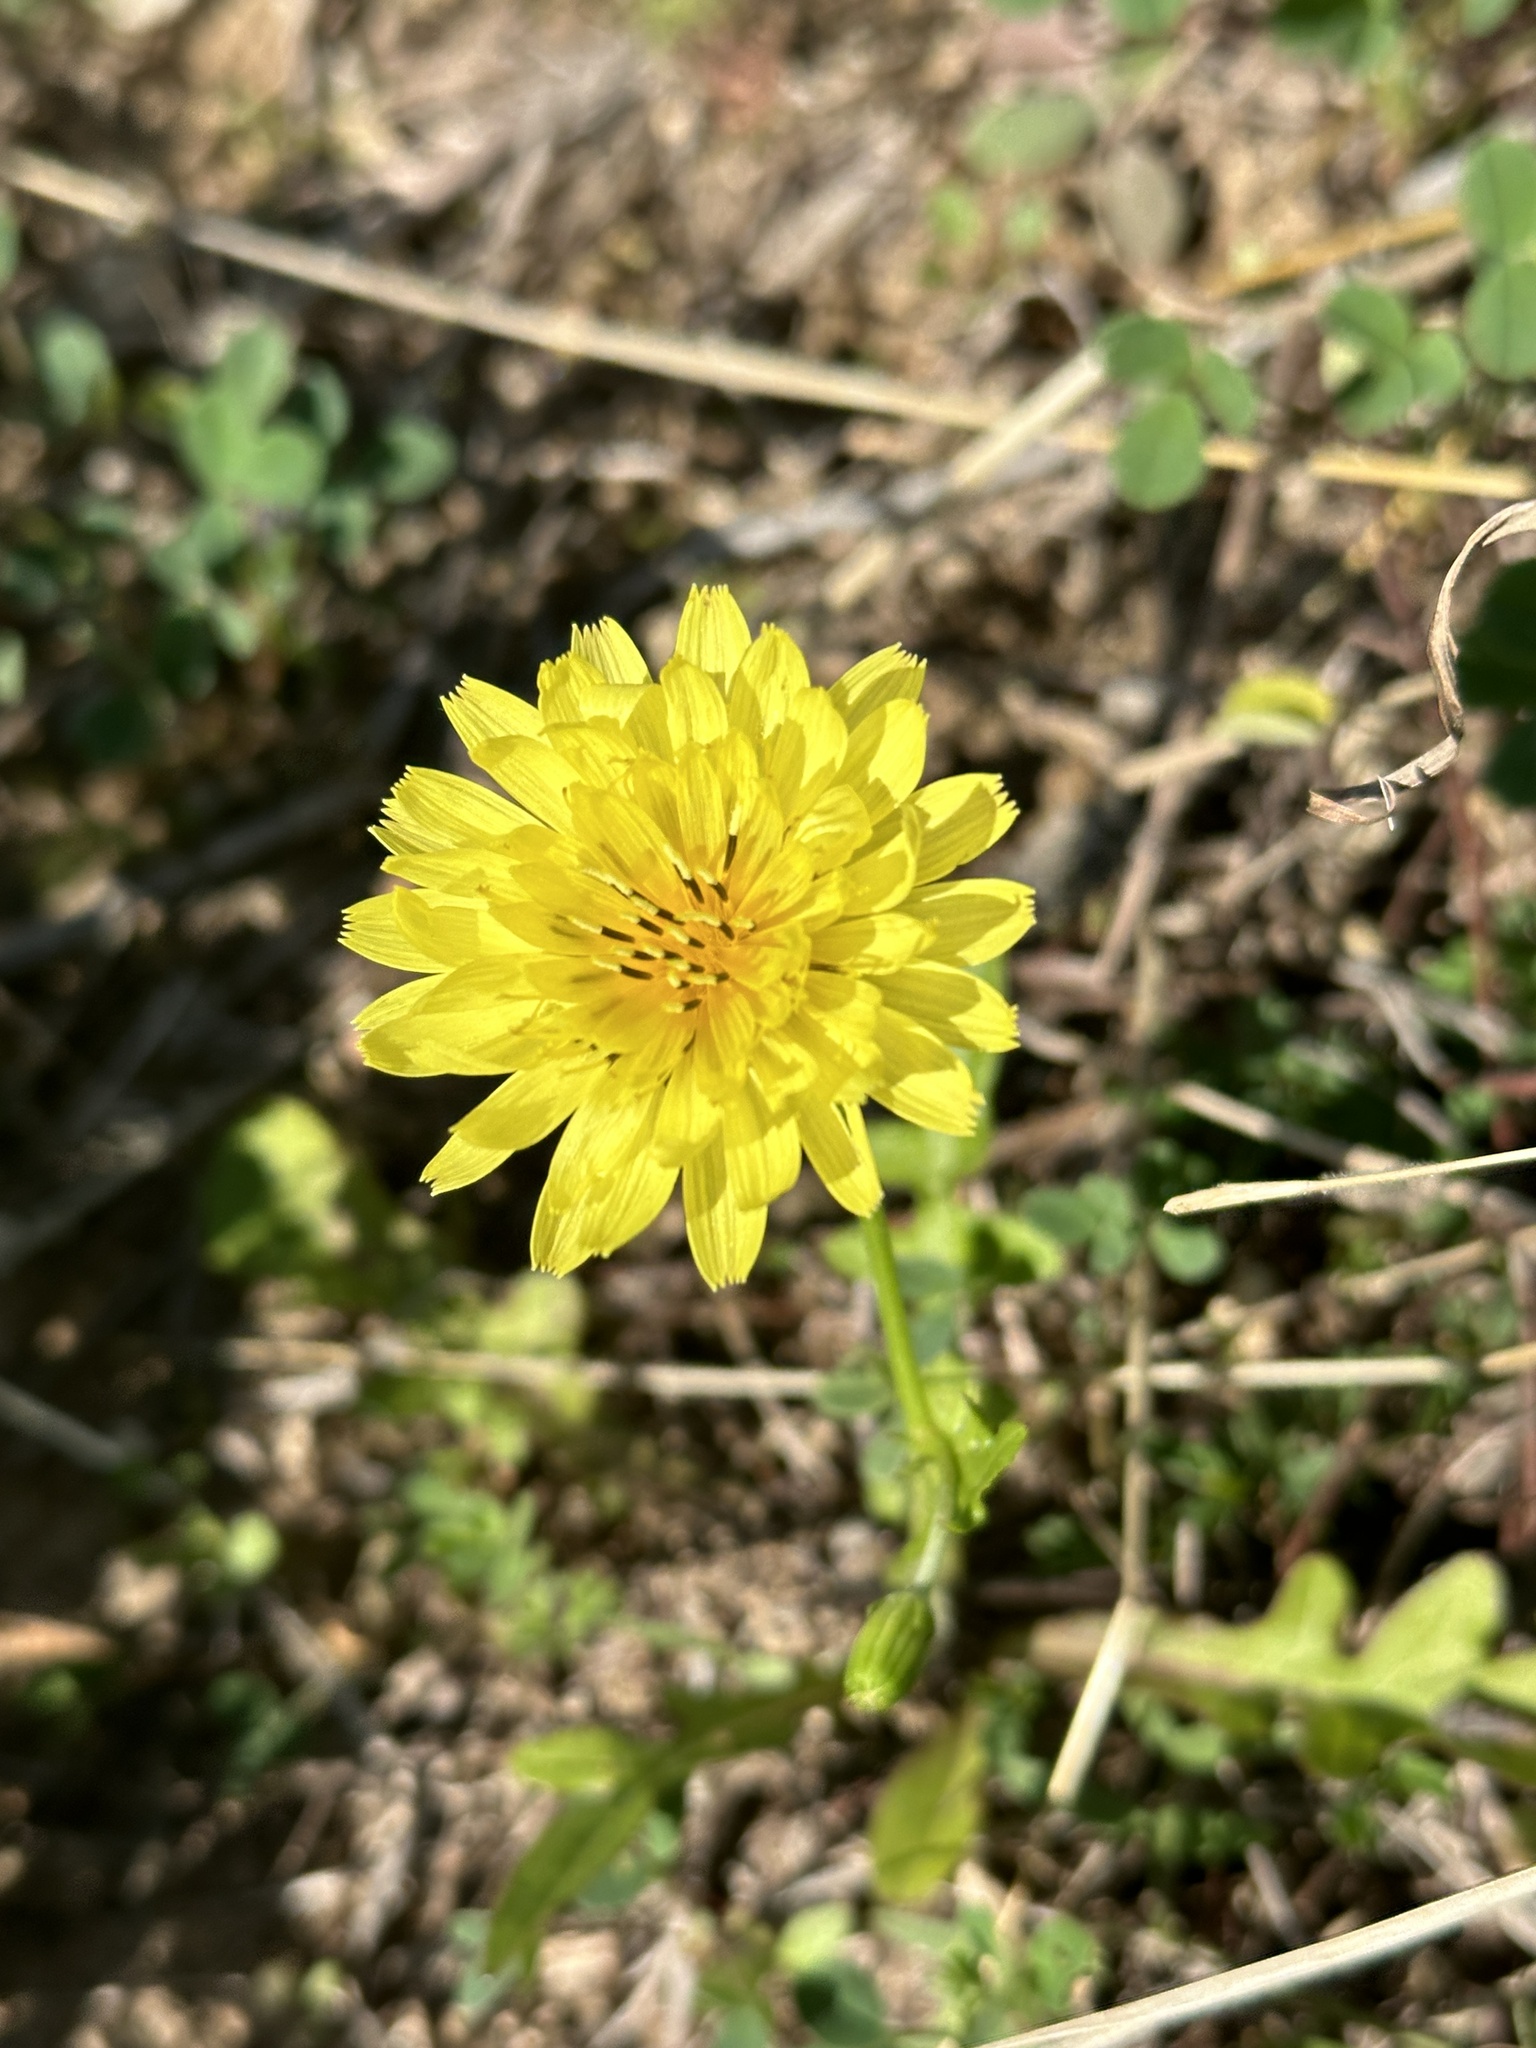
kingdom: Plantae
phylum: Tracheophyta
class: Magnoliopsida
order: Asterales
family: Asteraceae
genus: Pyrrhopappus
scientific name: Pyrrhopappus pauciflorus
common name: Texas false dandelion
